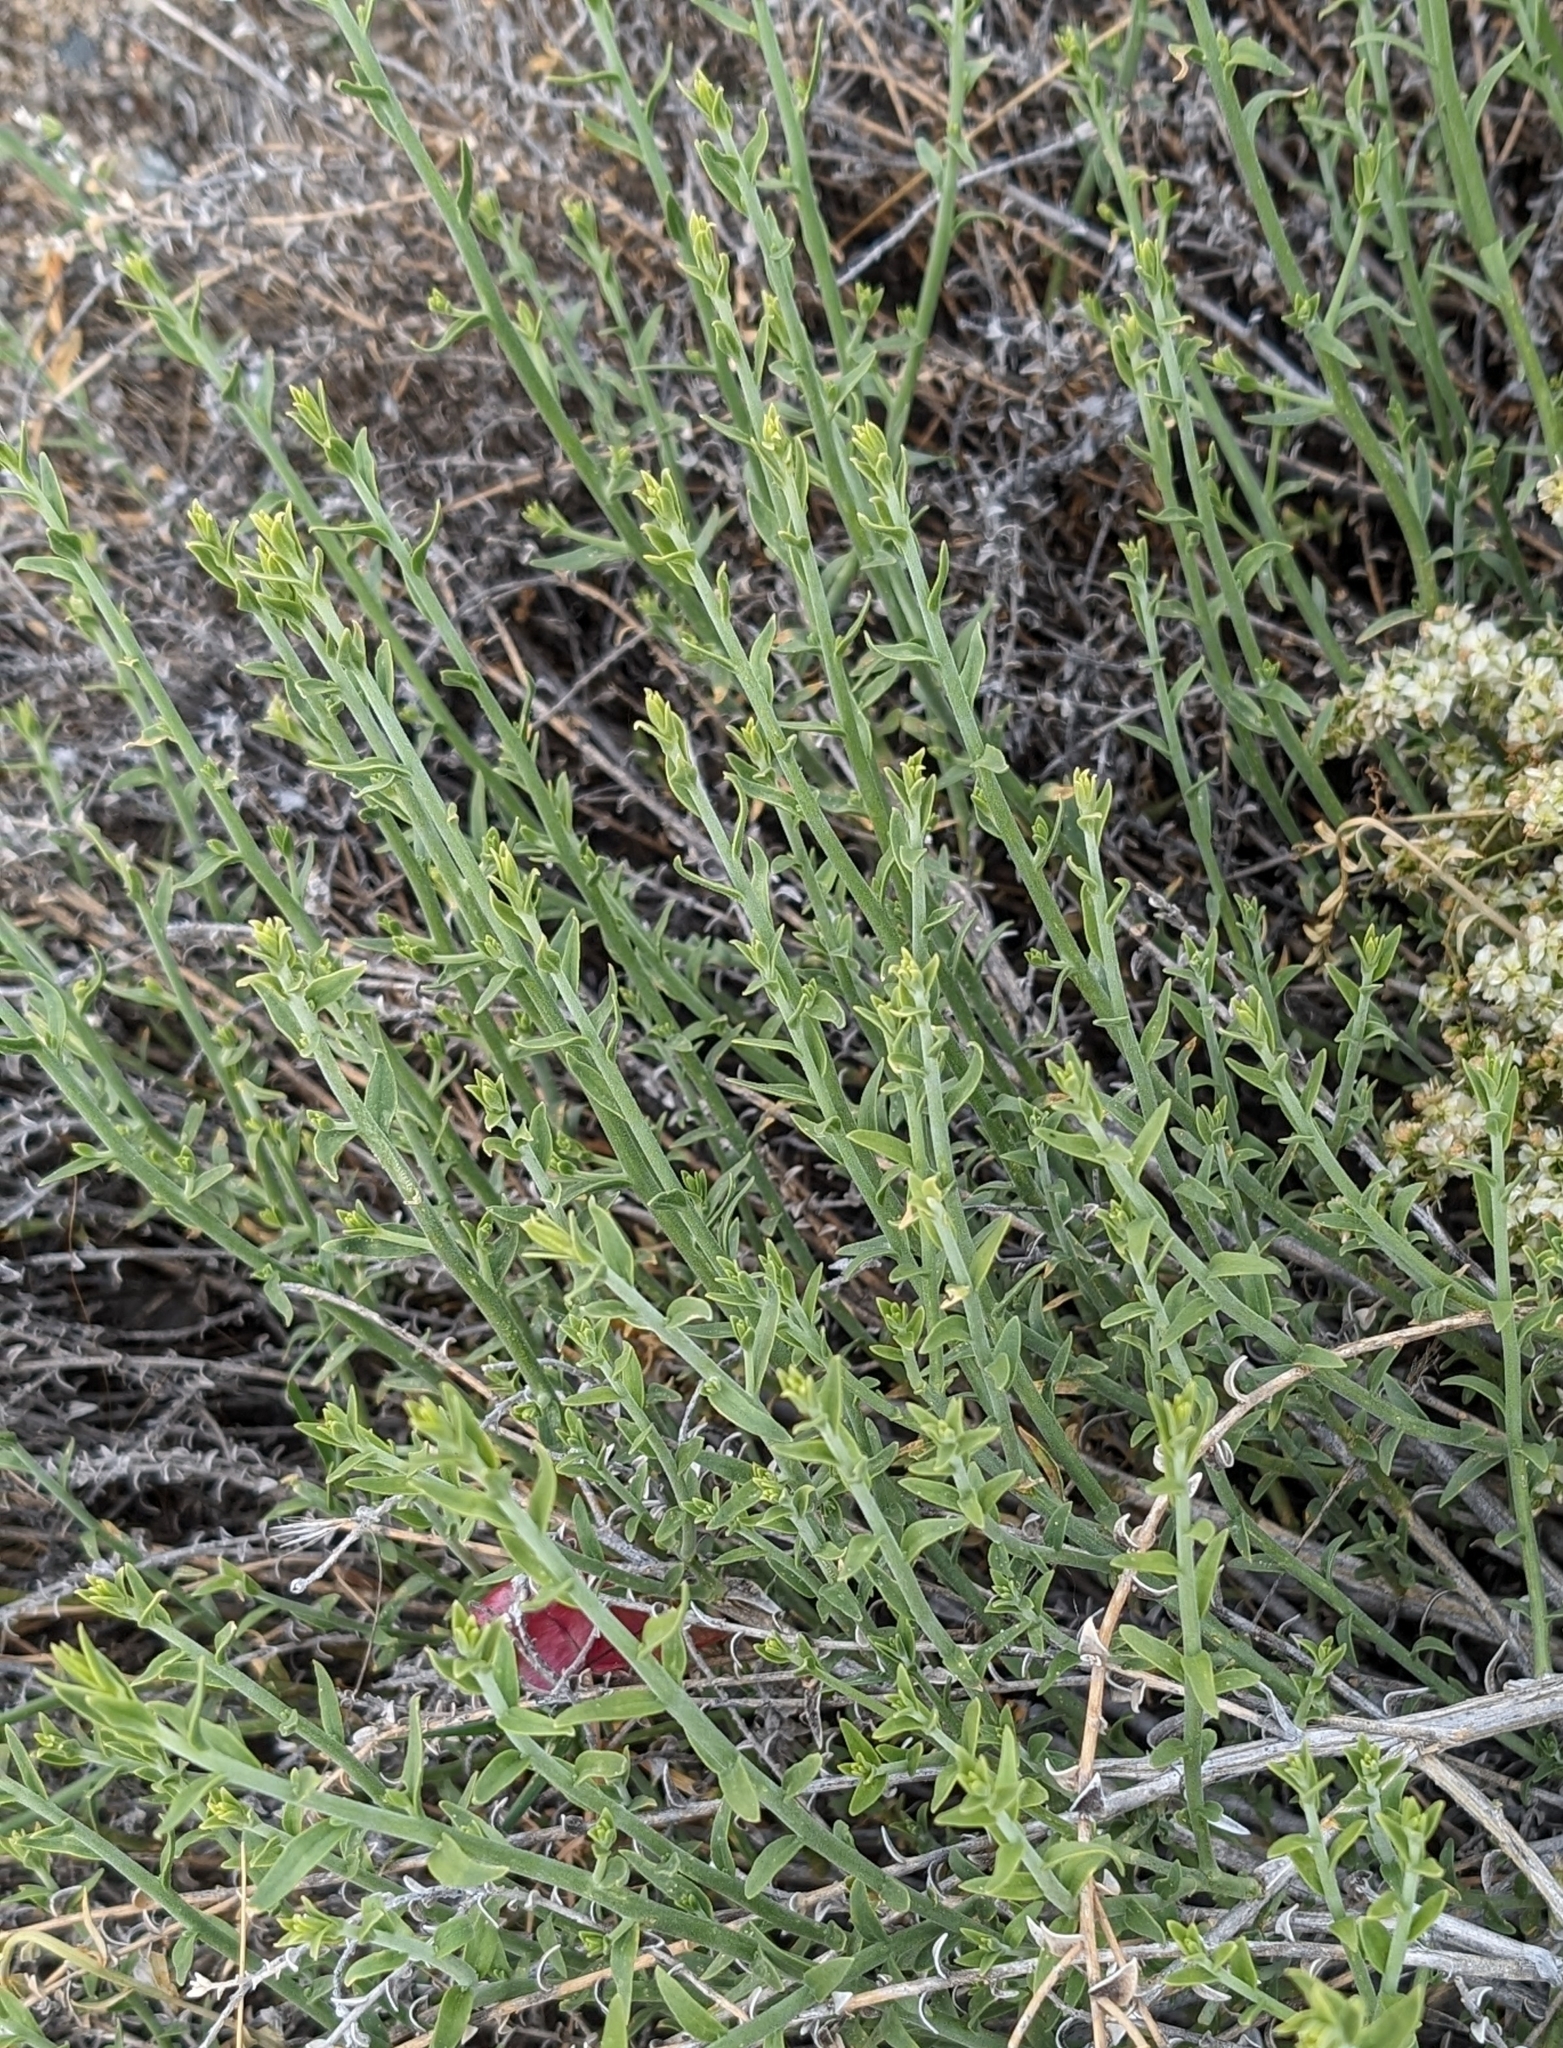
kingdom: Plantae
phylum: Tracheophyta
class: Magnoliopsida
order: Cornales
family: Loasaceae
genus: Petalonyx
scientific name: Petalonyx thurberi
